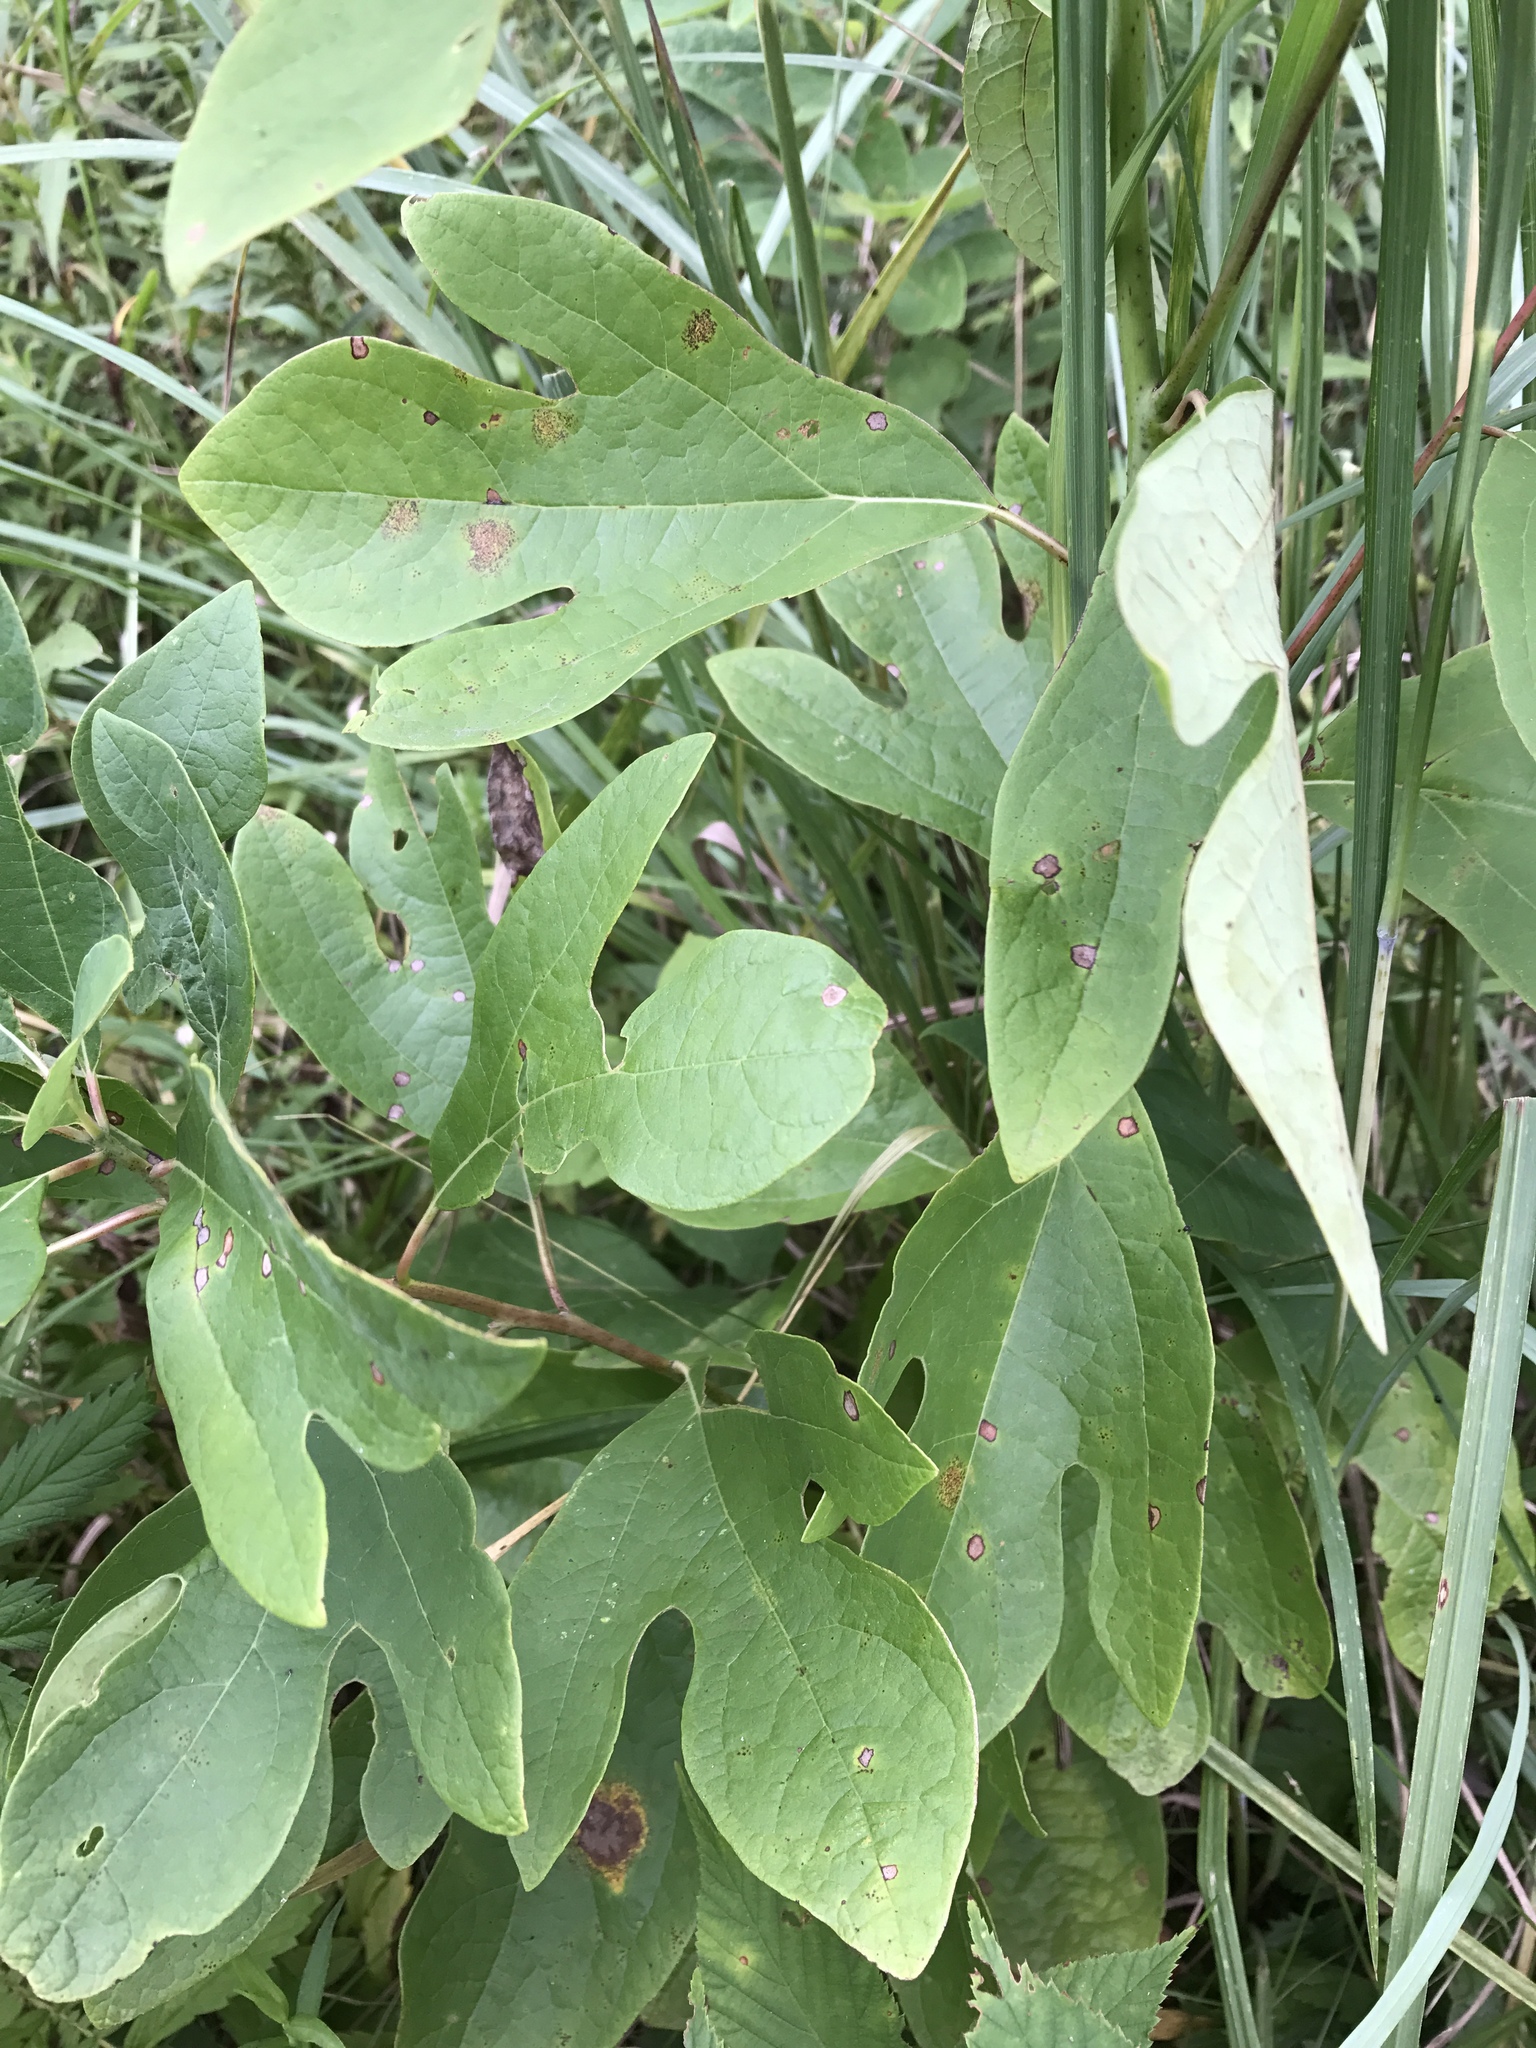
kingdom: Plantae
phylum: Tracheophyta
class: Magnoliopsida
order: Laurales
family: Lauraceae
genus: Sassafras
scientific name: Sassafras albidum
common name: Sassafras
